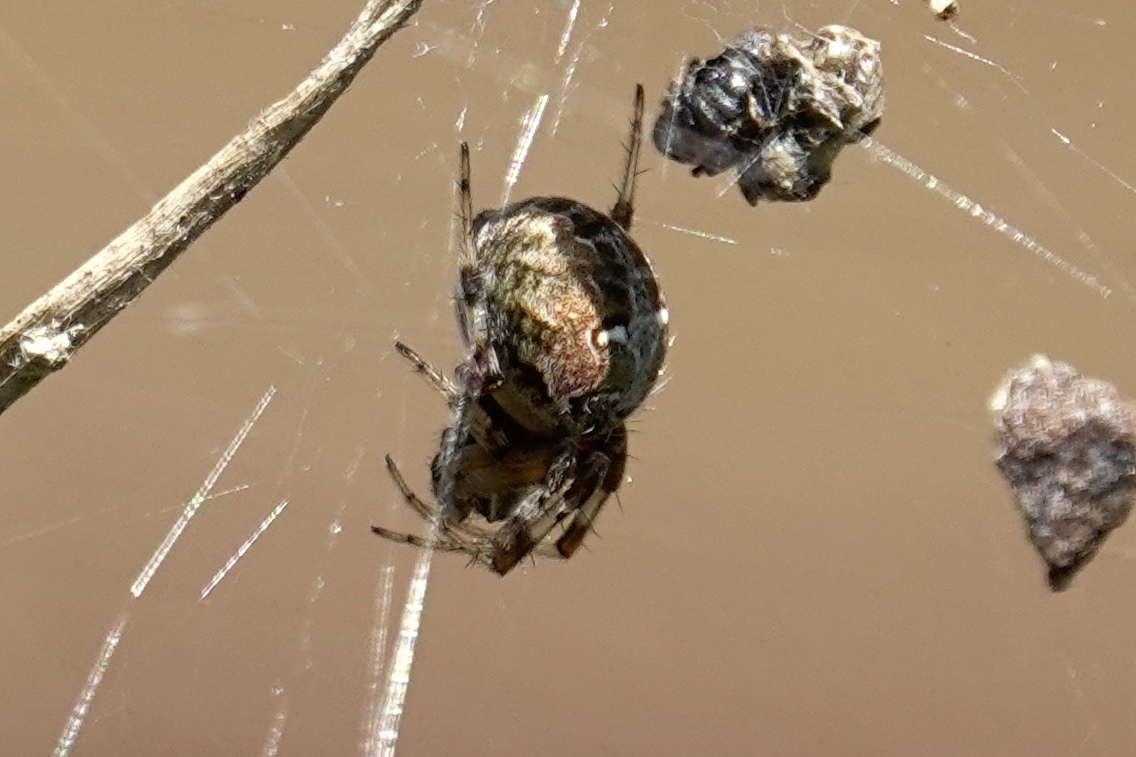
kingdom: Animalia
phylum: Arthropoda
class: Arachnida
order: Araneae
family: Araneidae
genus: Metepeira
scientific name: Metepeira labyrinthea
